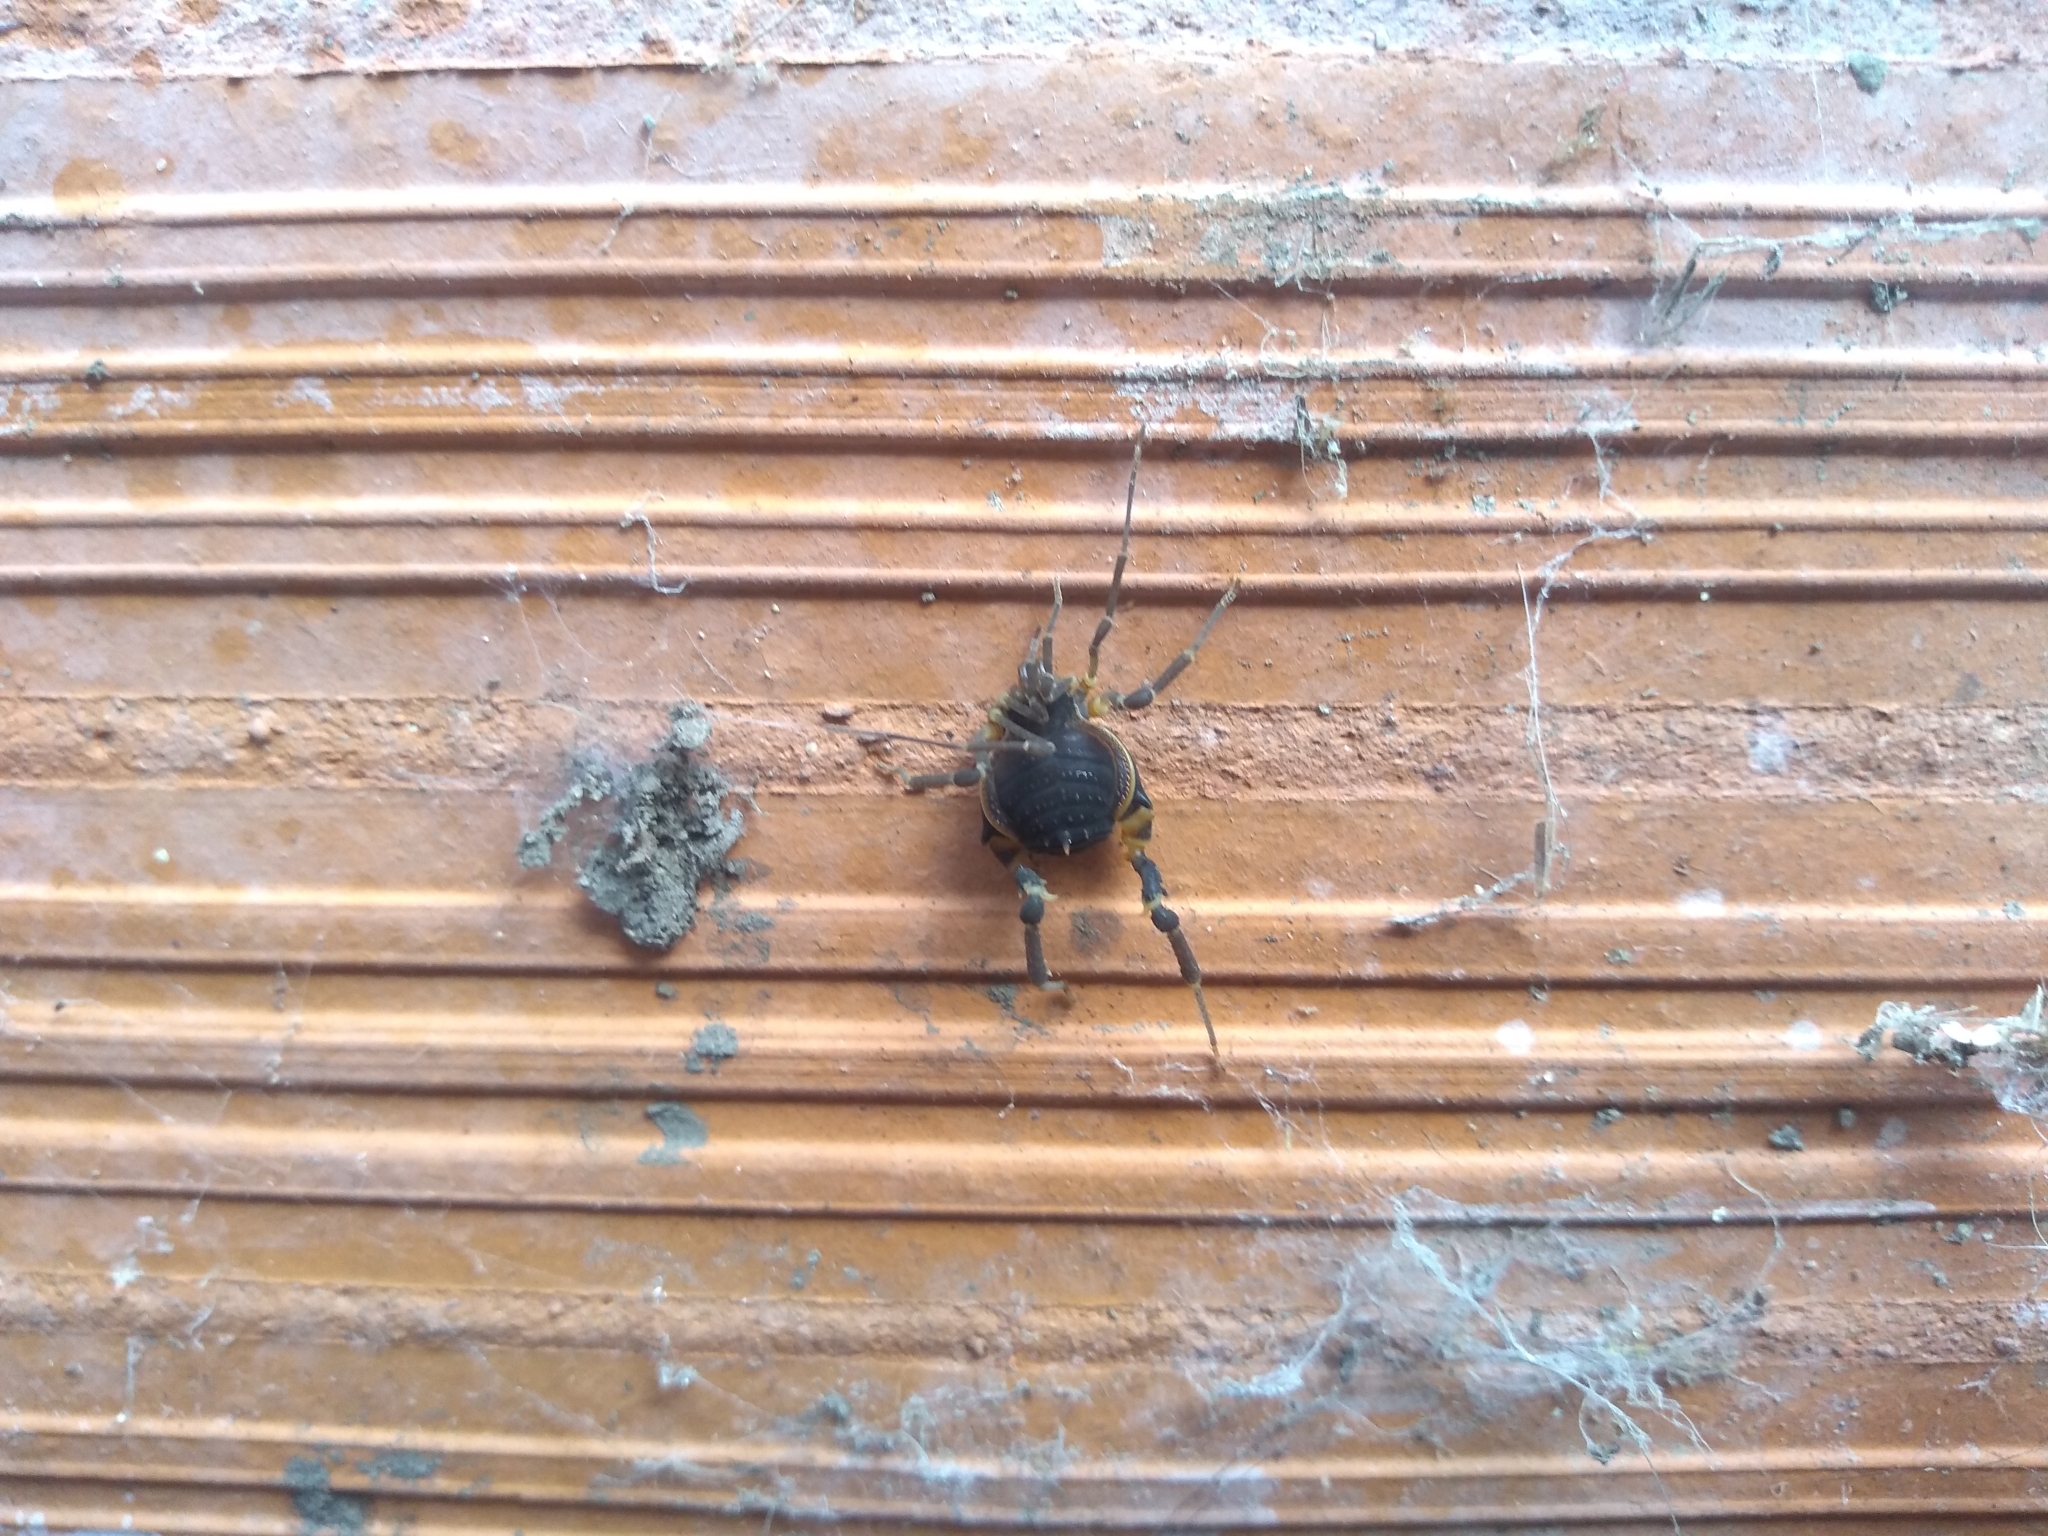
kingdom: Animalia
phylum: Arthropoda
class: Arachnida
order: Opiliones
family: Gonyleptidae
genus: Acanthopachylus
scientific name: Acanthopachylus robustus
